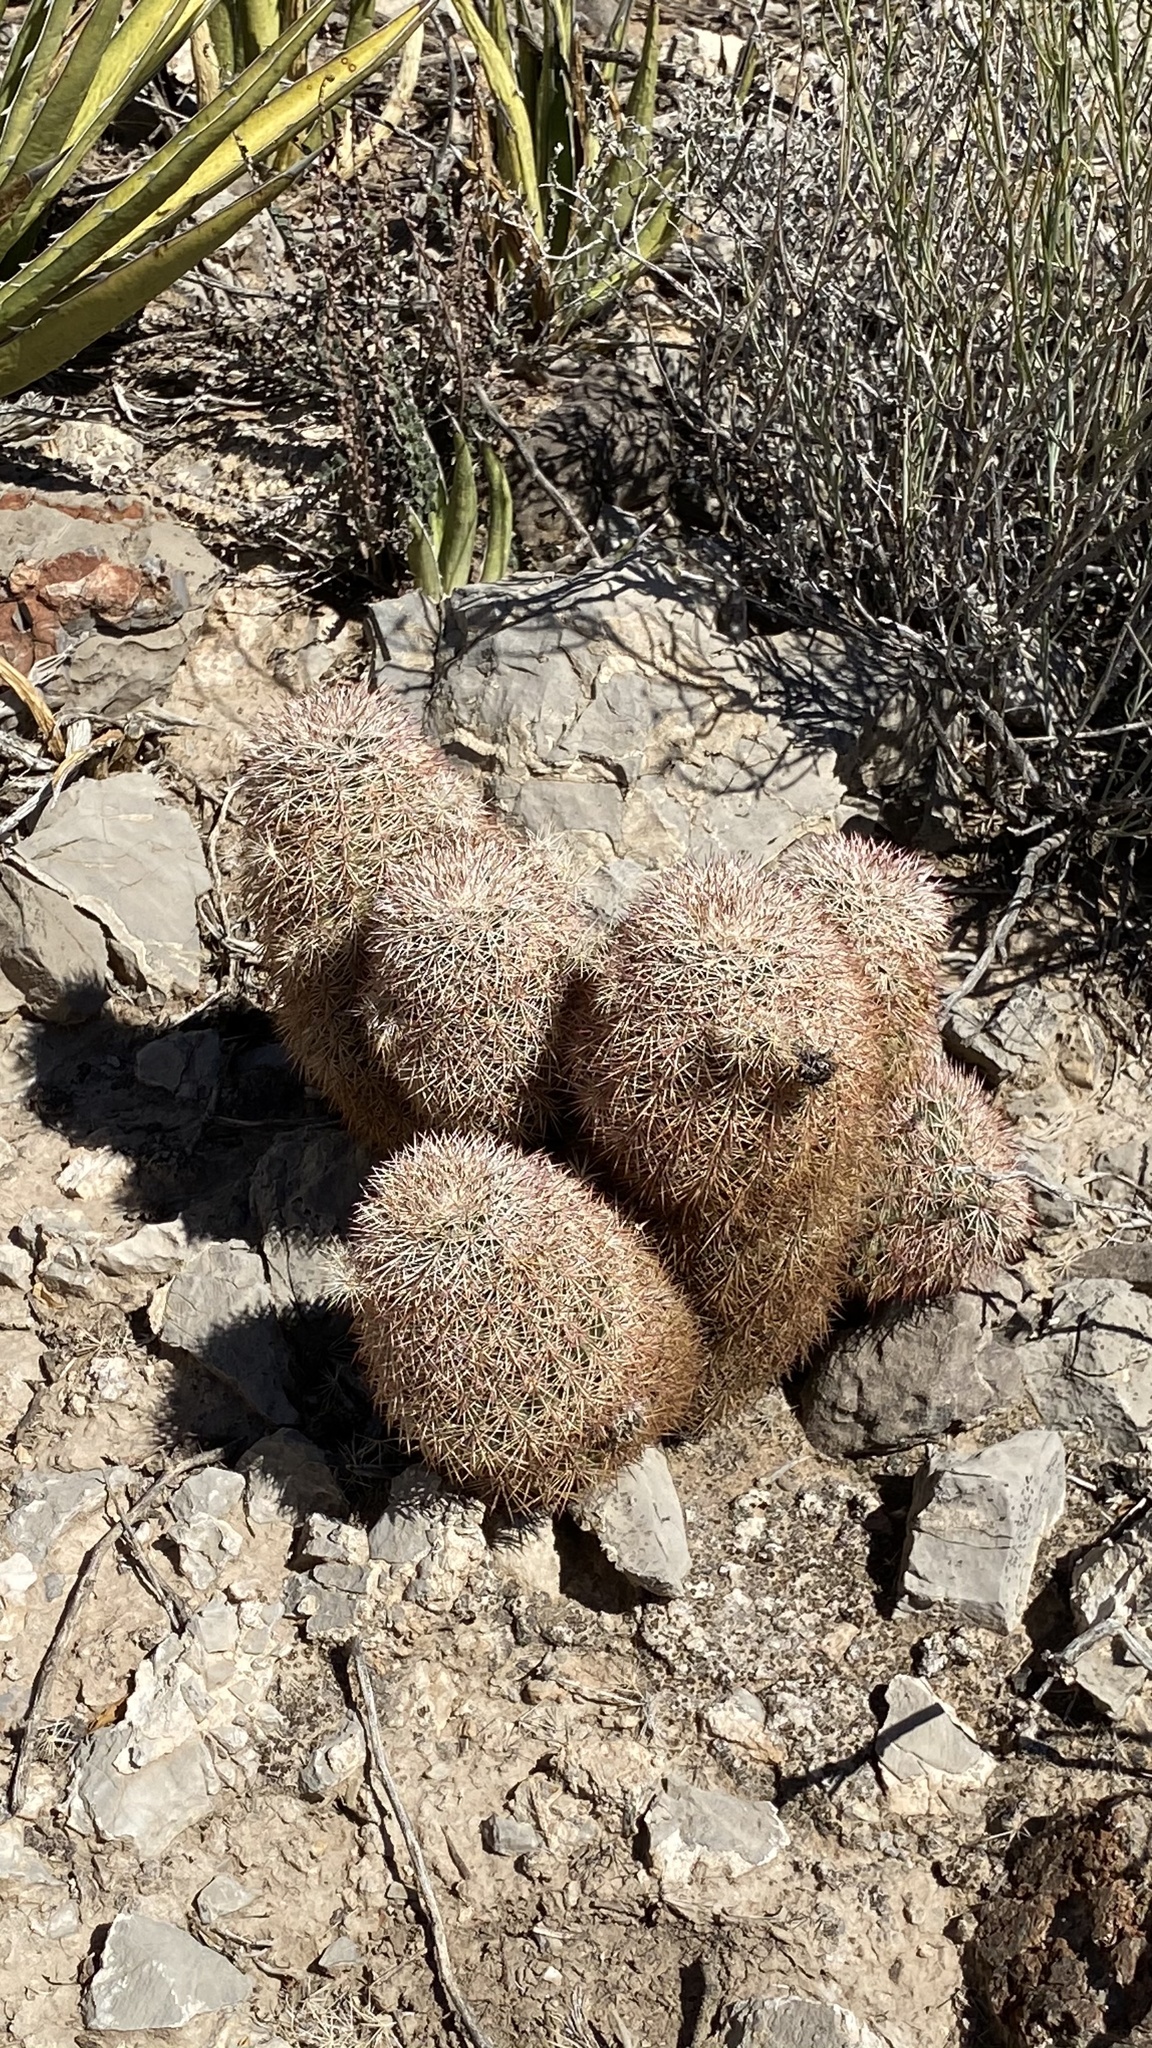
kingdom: Plantae
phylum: Tracheophyta
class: Magnoliopsida
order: Caryophyllales
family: Cactaceae
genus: Echinocereus
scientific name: Echinocereus dasyacanthus
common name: Spiny hedgehog cactus
